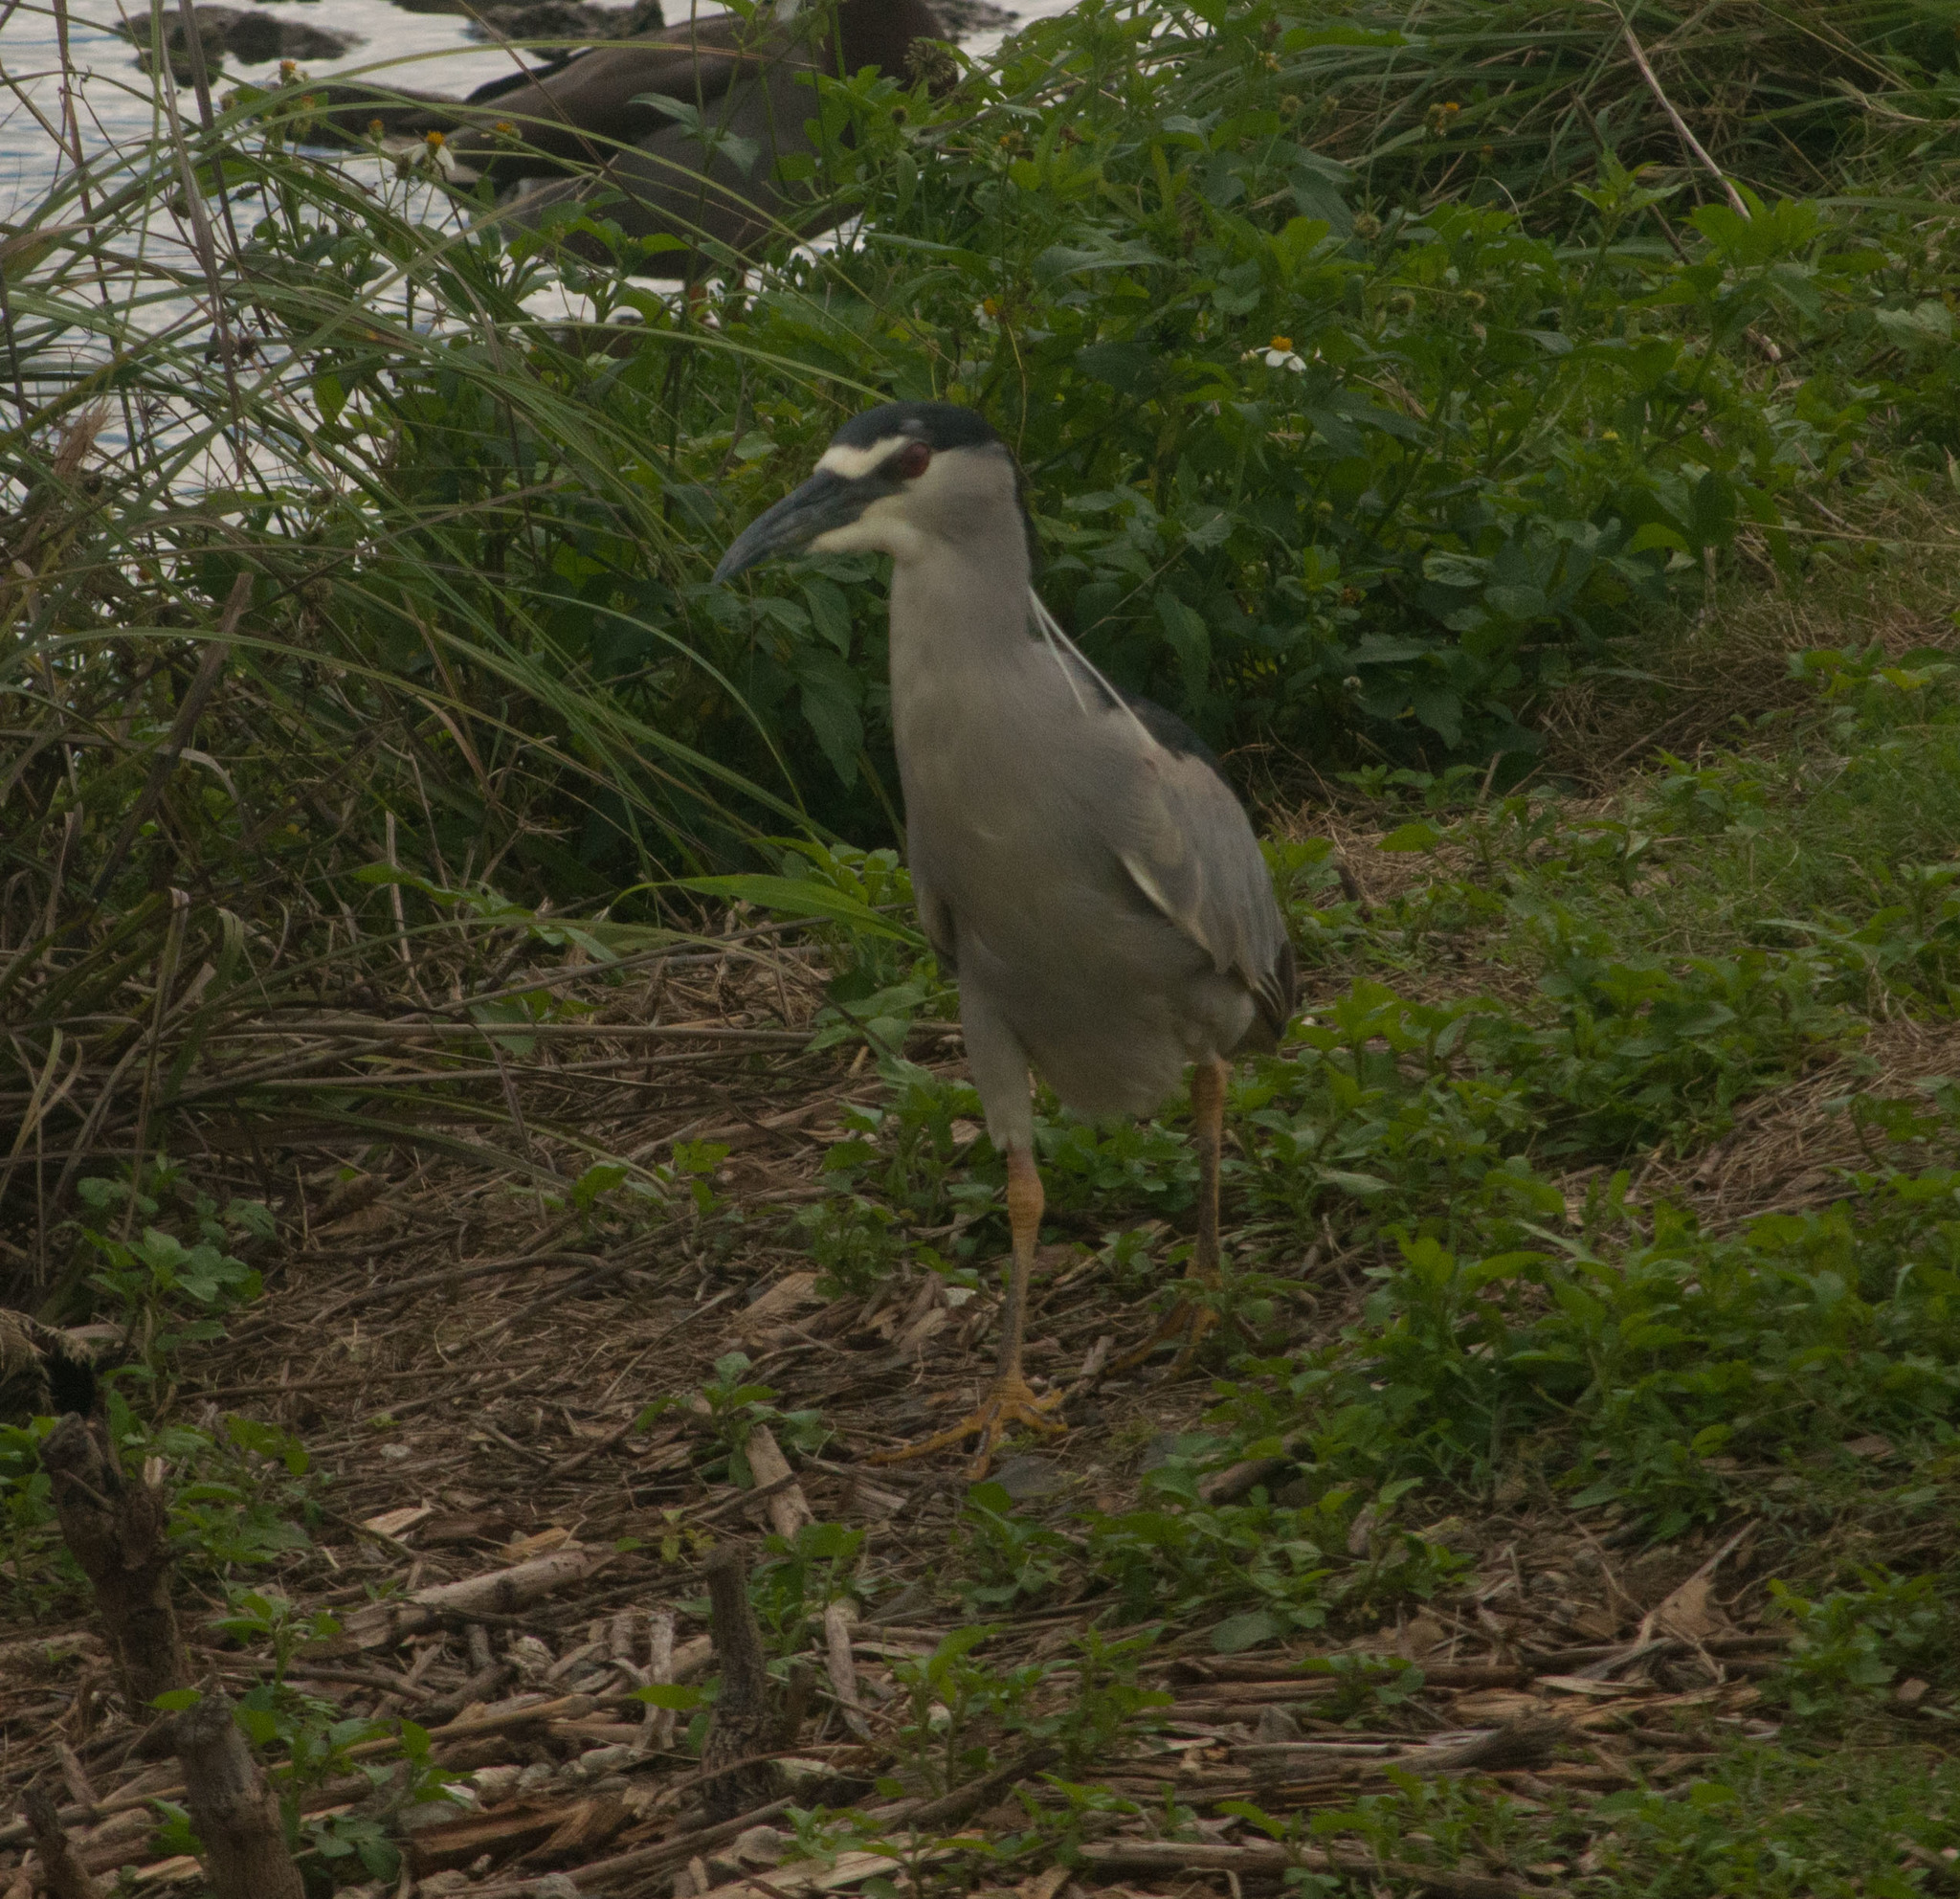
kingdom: Animalia
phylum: Chordata
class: Aves
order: Pelecaniformes
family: Ardeidae
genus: Nycticorax
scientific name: Nycticorax nycticorax
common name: Black-crowned night heron
